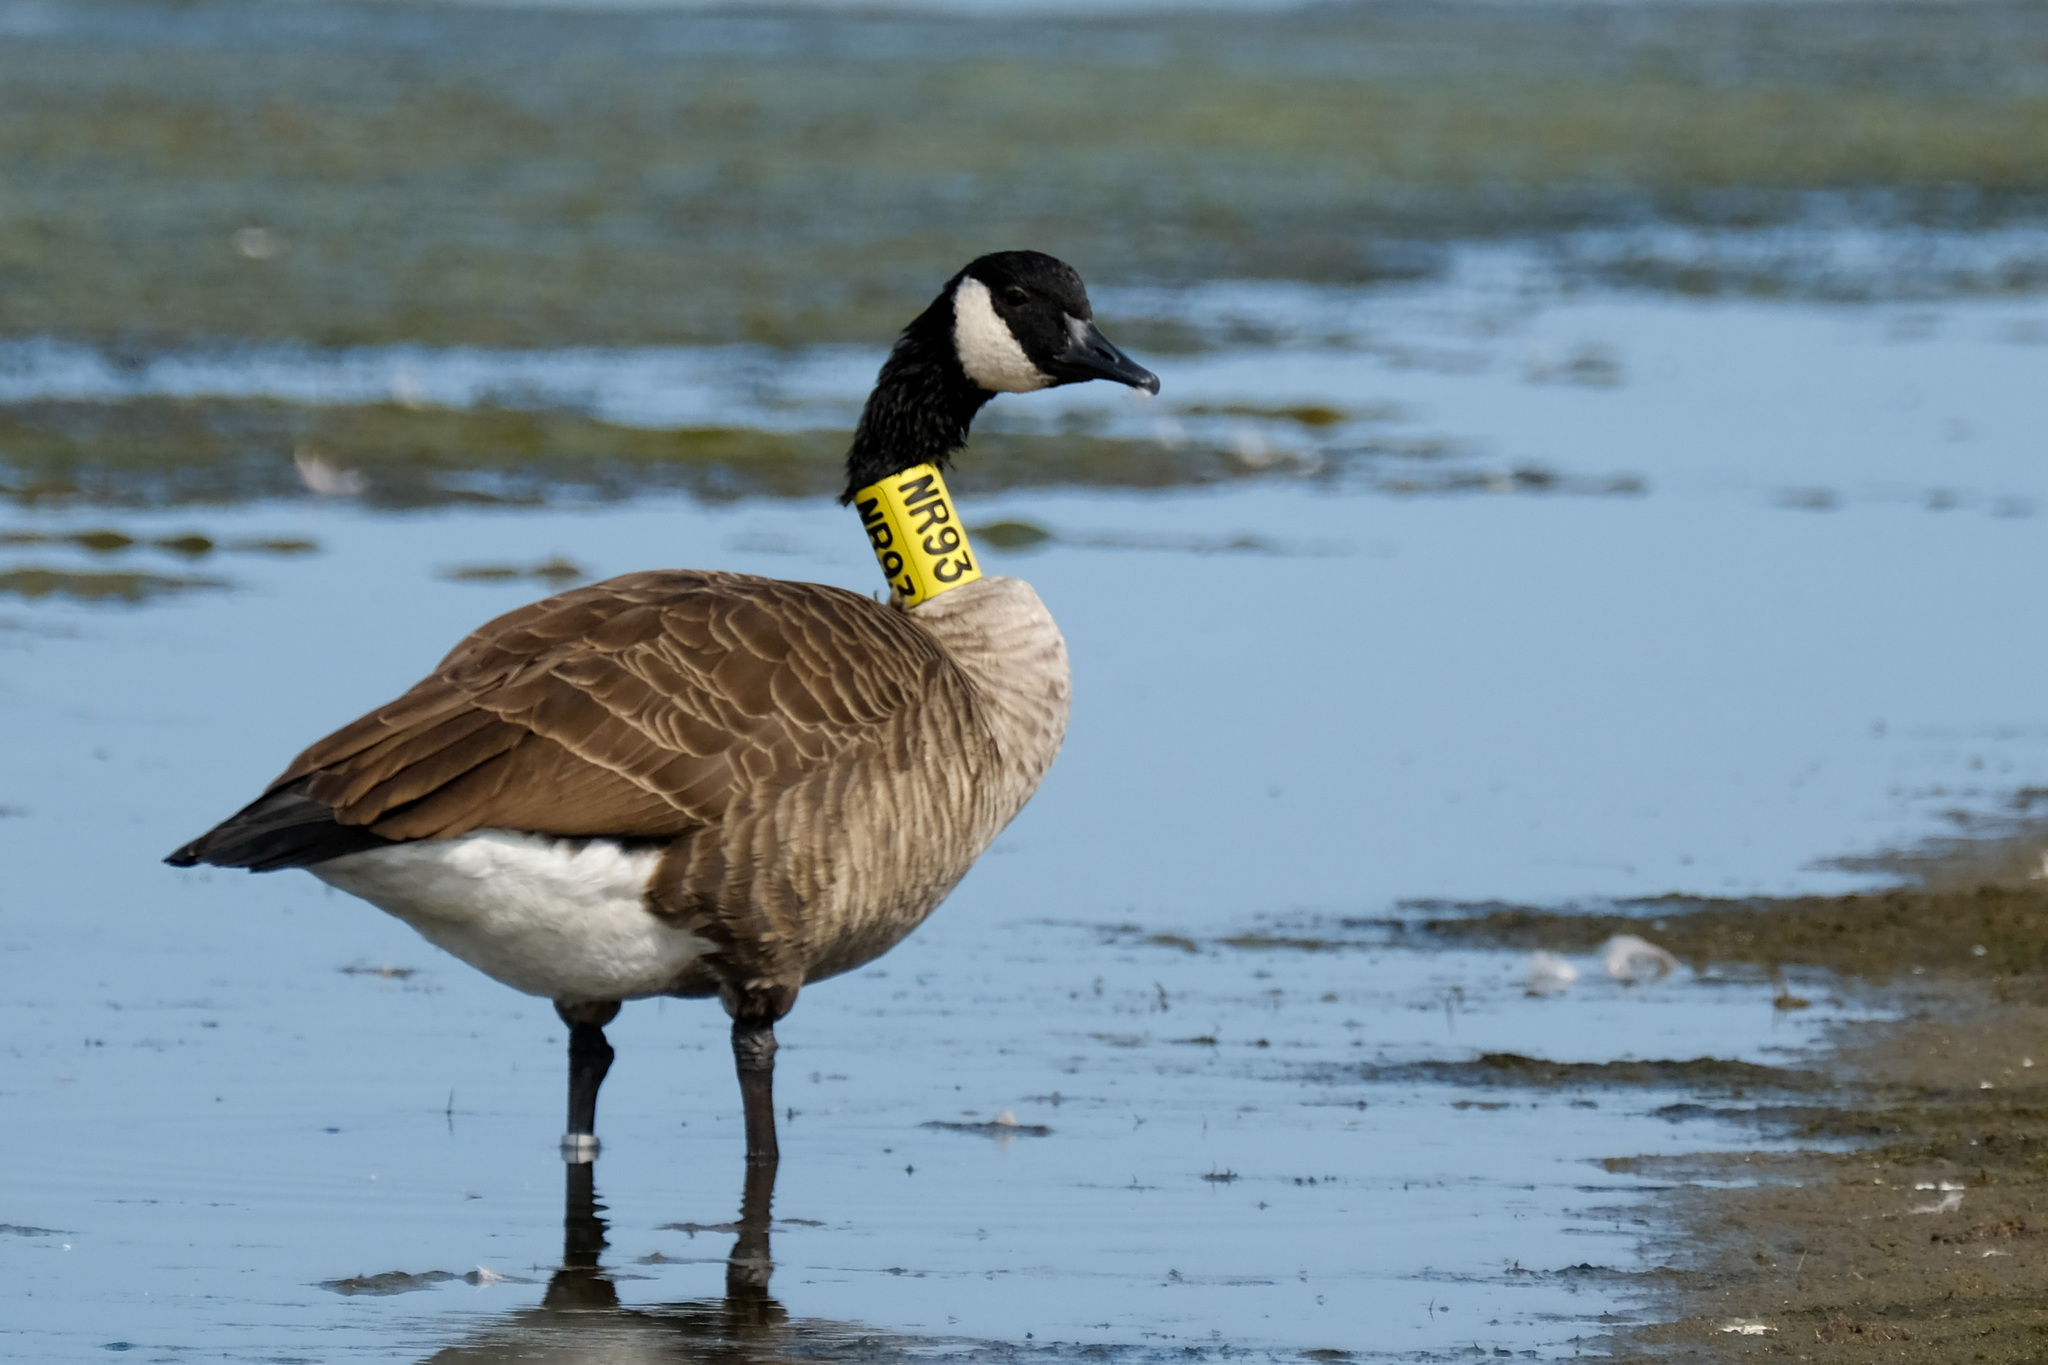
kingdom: Animalia
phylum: Chordata
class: Aves
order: Anseriformes
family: Anatidae
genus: Branta
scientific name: Branta canadensis
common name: Canada goose
